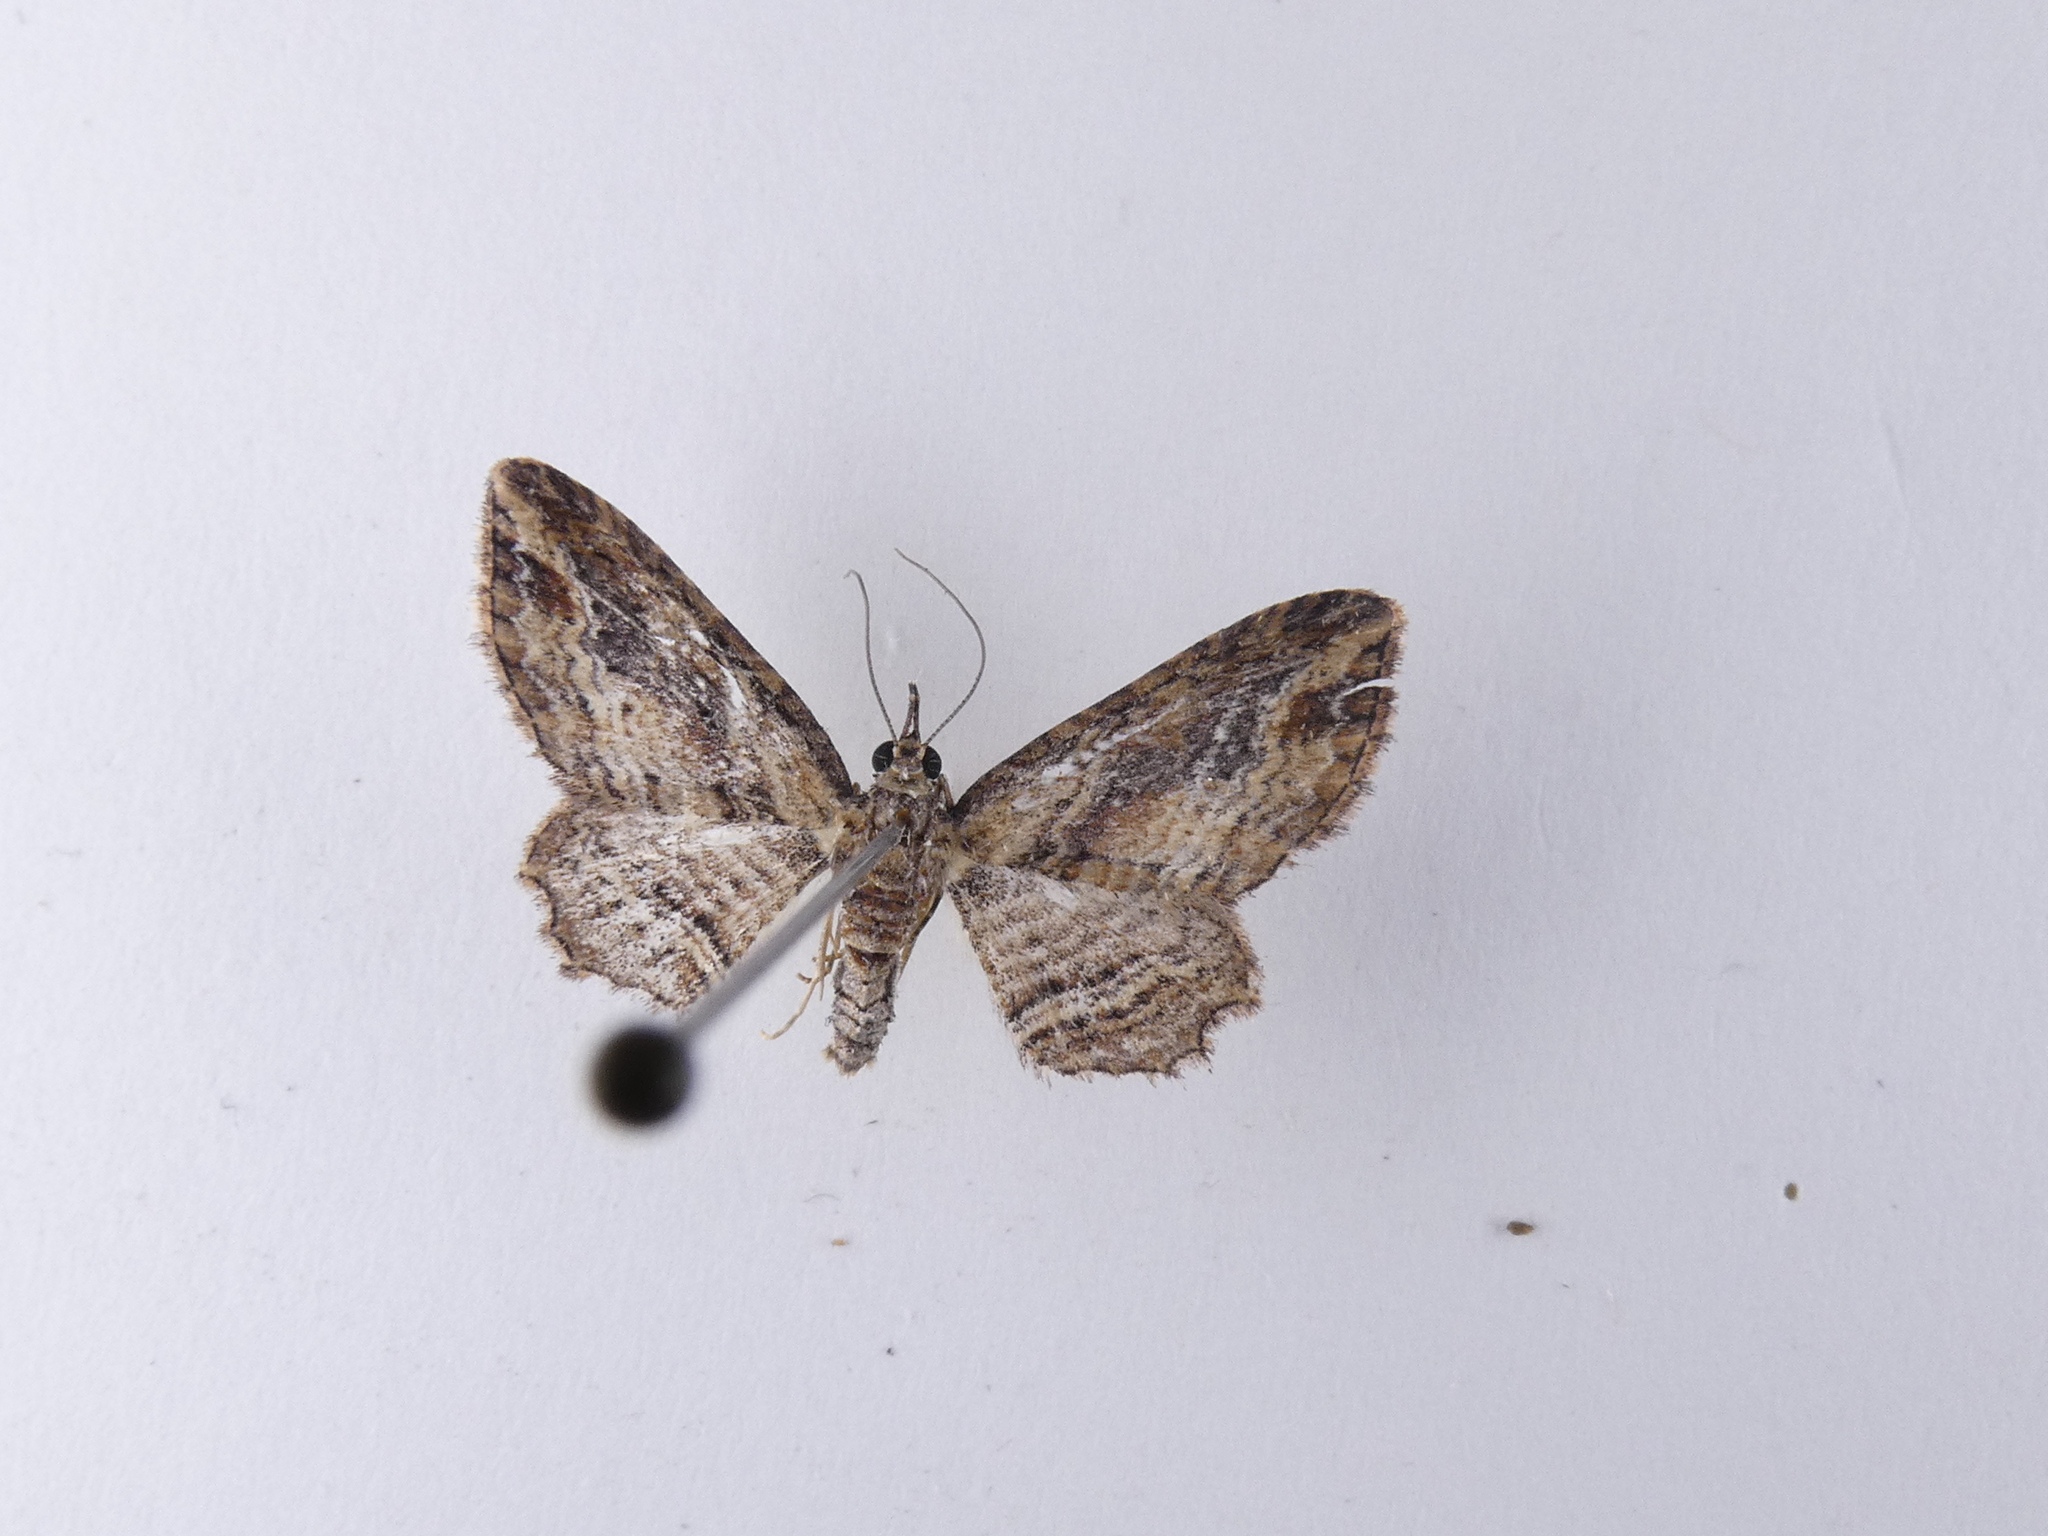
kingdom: Animalia
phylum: Arthropoda
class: Insecta
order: Lepidoptera
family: Geometridae
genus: Chloroclystis
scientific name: Chloroclystis filata
